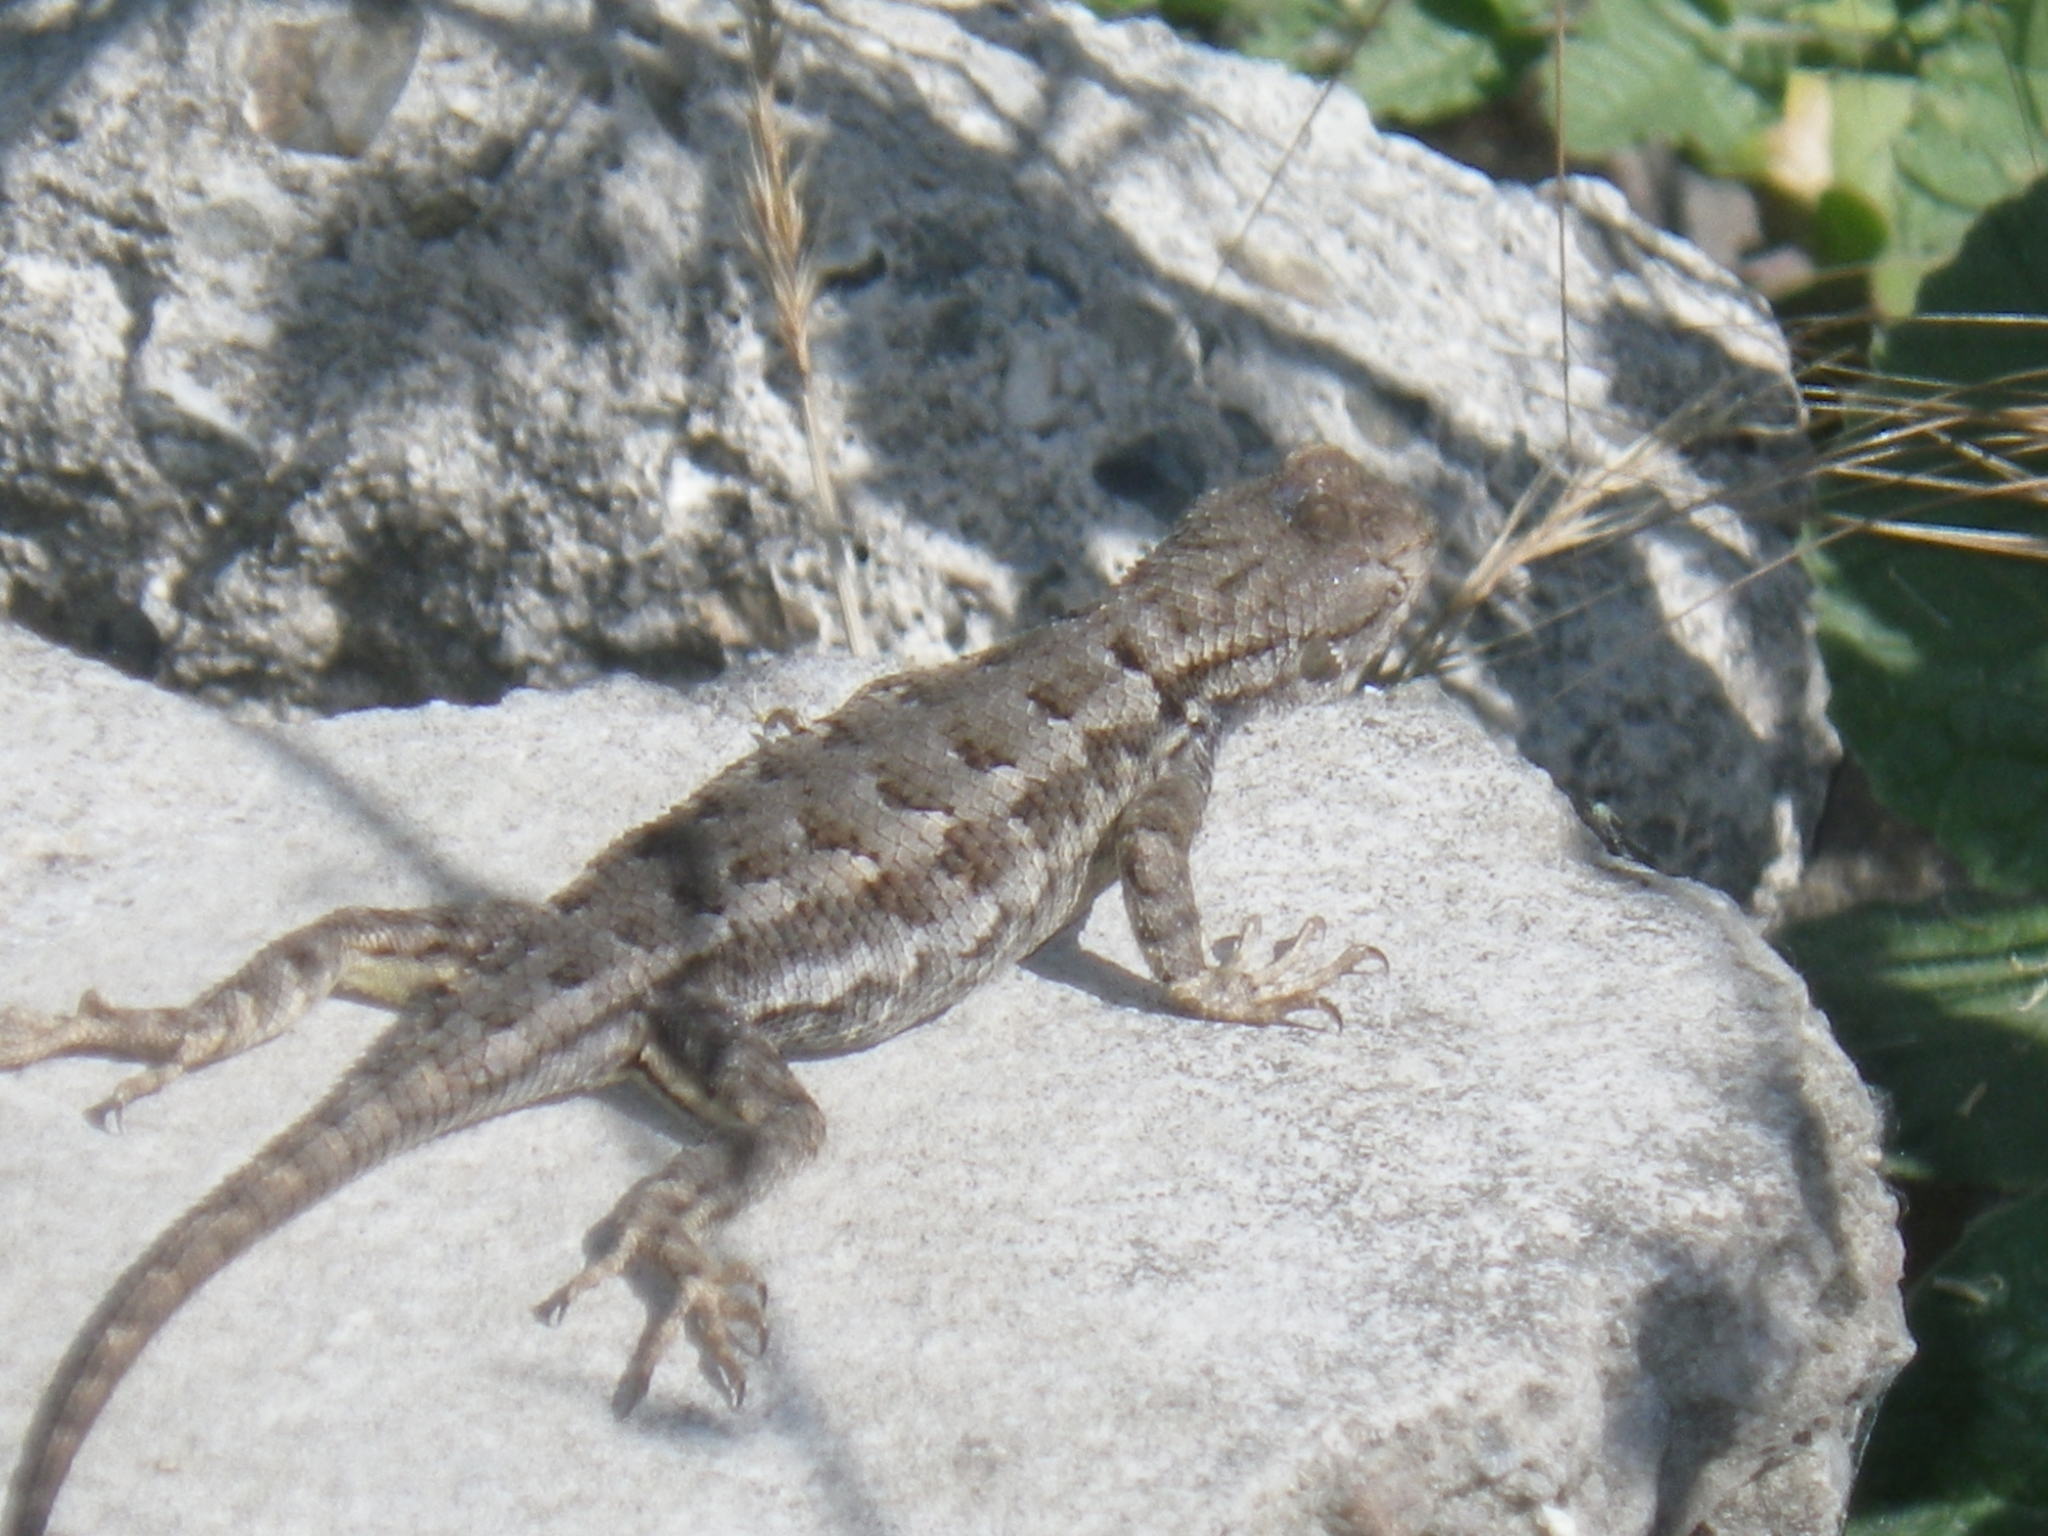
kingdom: Animalia
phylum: Chordata
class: Squamata
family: Phrynosomatidae
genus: Sceloporus
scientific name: Sceloporus occidentalis
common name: Western fence lizard
